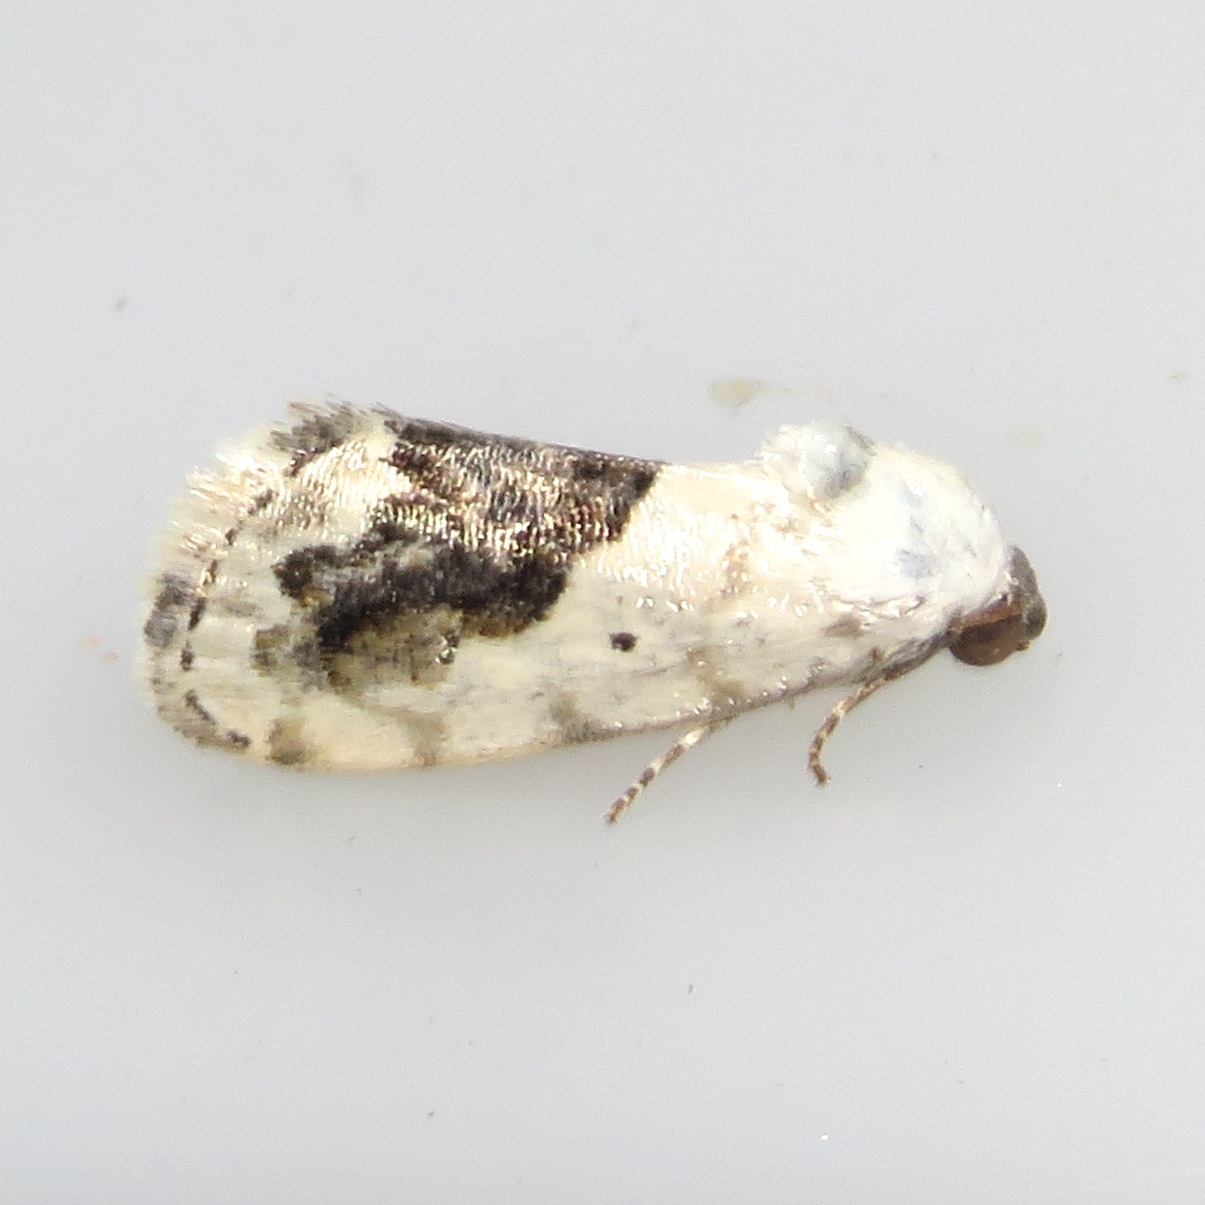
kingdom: Animalia
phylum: Arthropoda
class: Insecta
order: Lepidoptera
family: Noctuidae
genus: Acontia
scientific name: Acontia erastrioides
